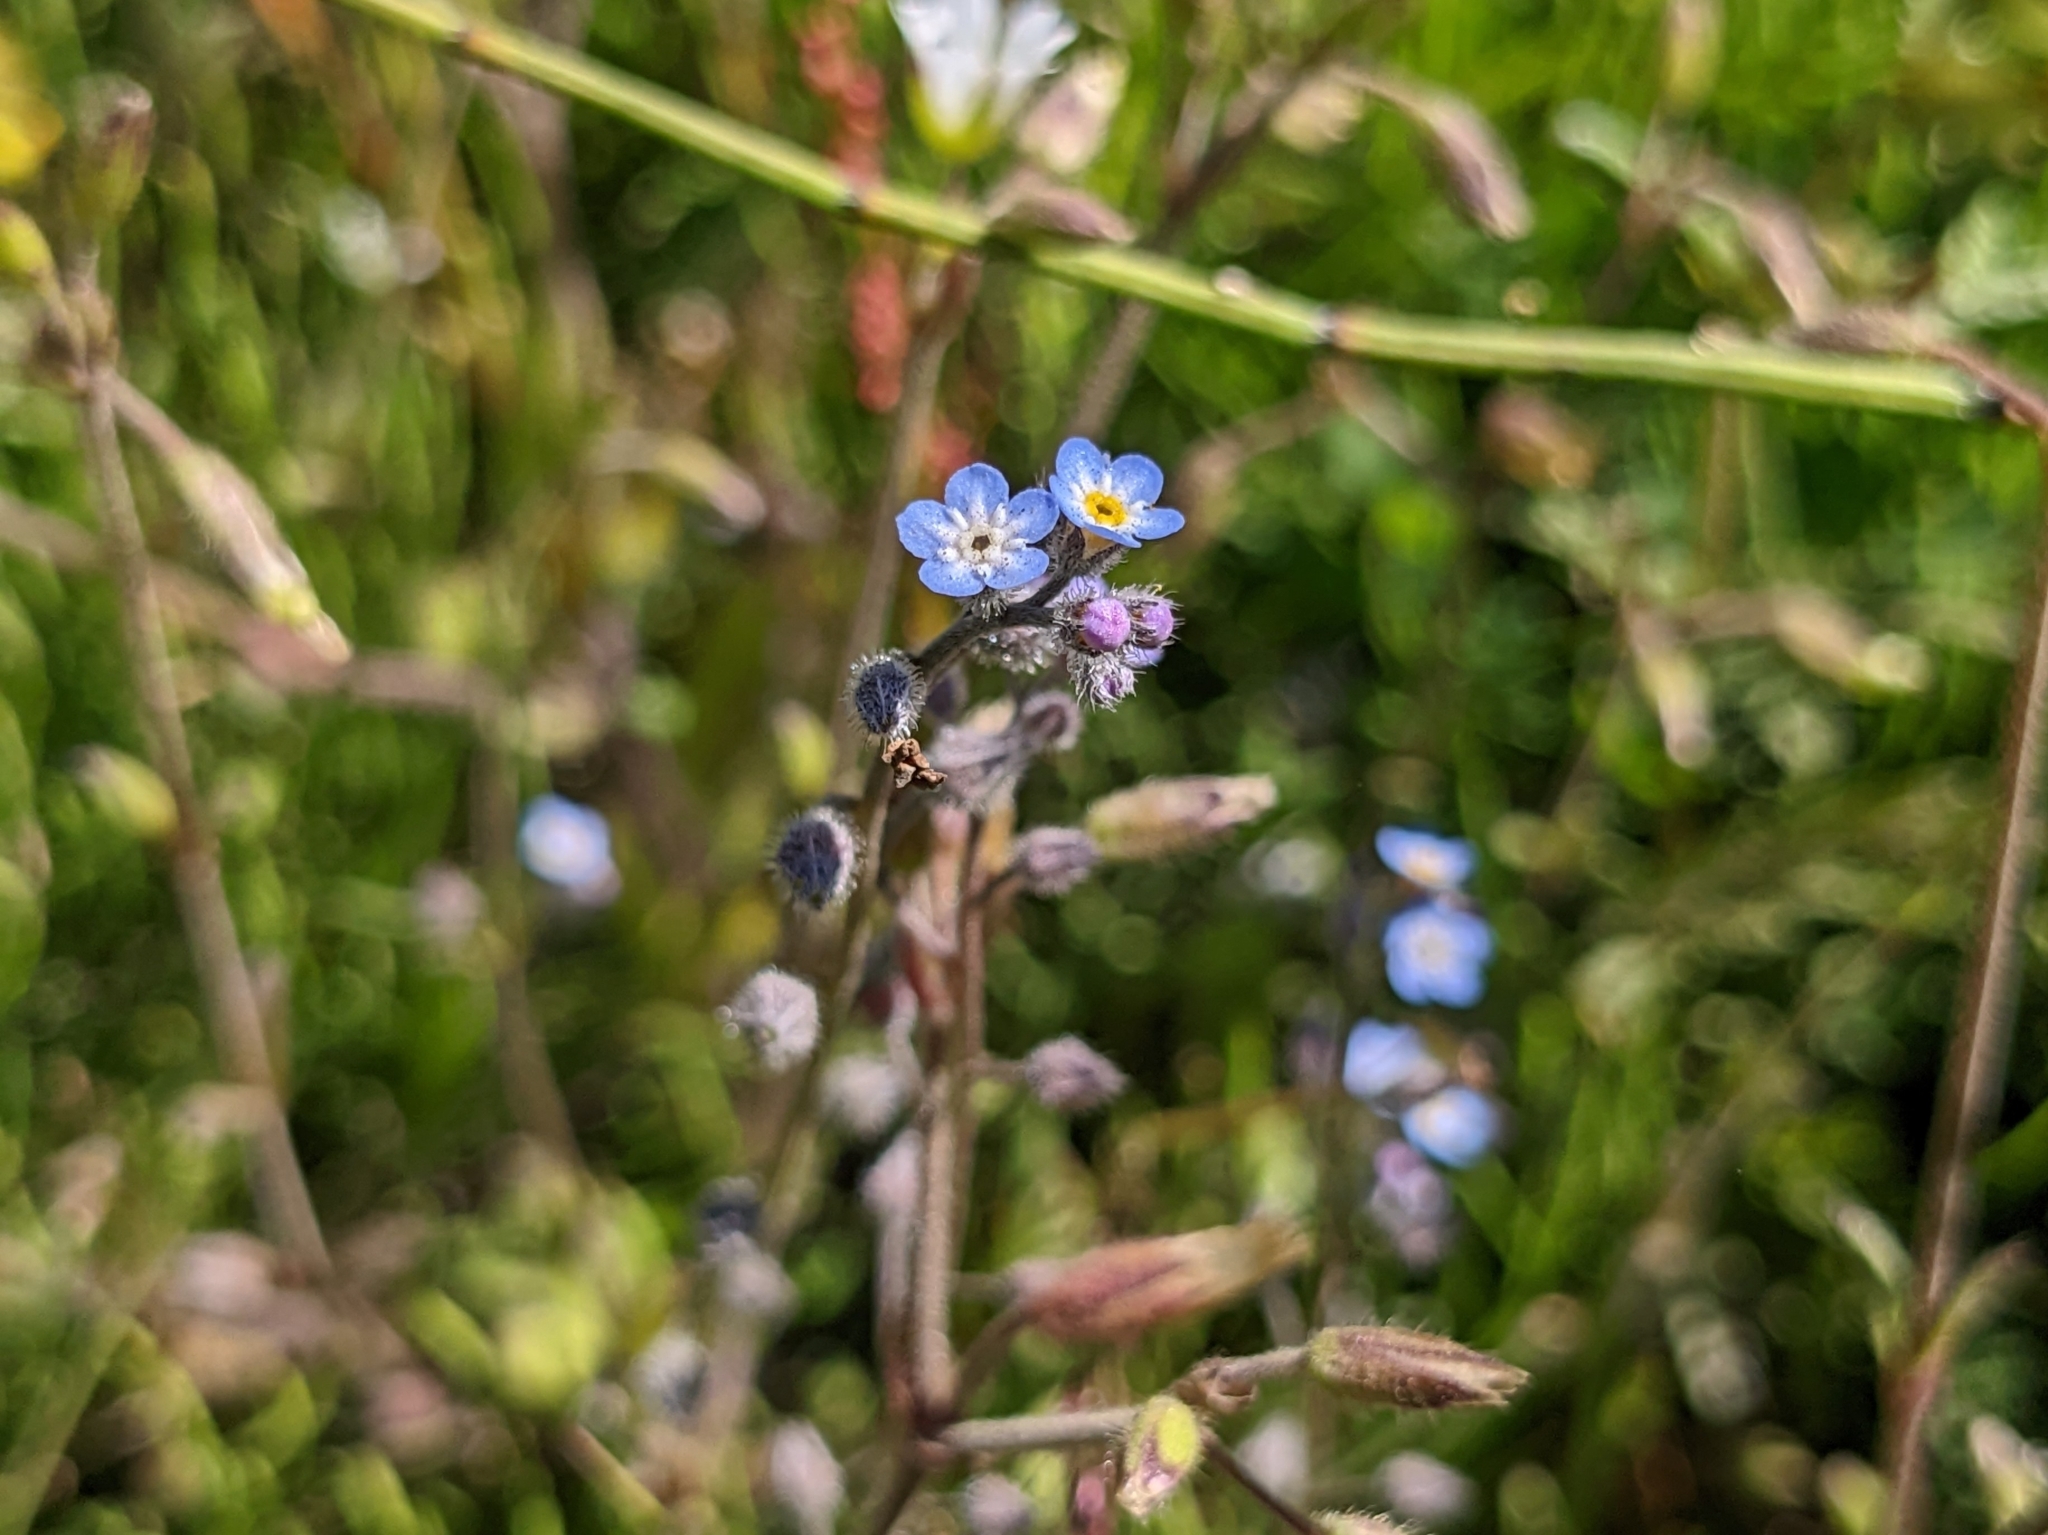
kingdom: Plantae
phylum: Tracheophyta
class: Magnoliopsida
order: Boraginales
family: Boraginaceae
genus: Myosotis
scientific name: Myosotis arvensis
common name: Field forget-me-not
